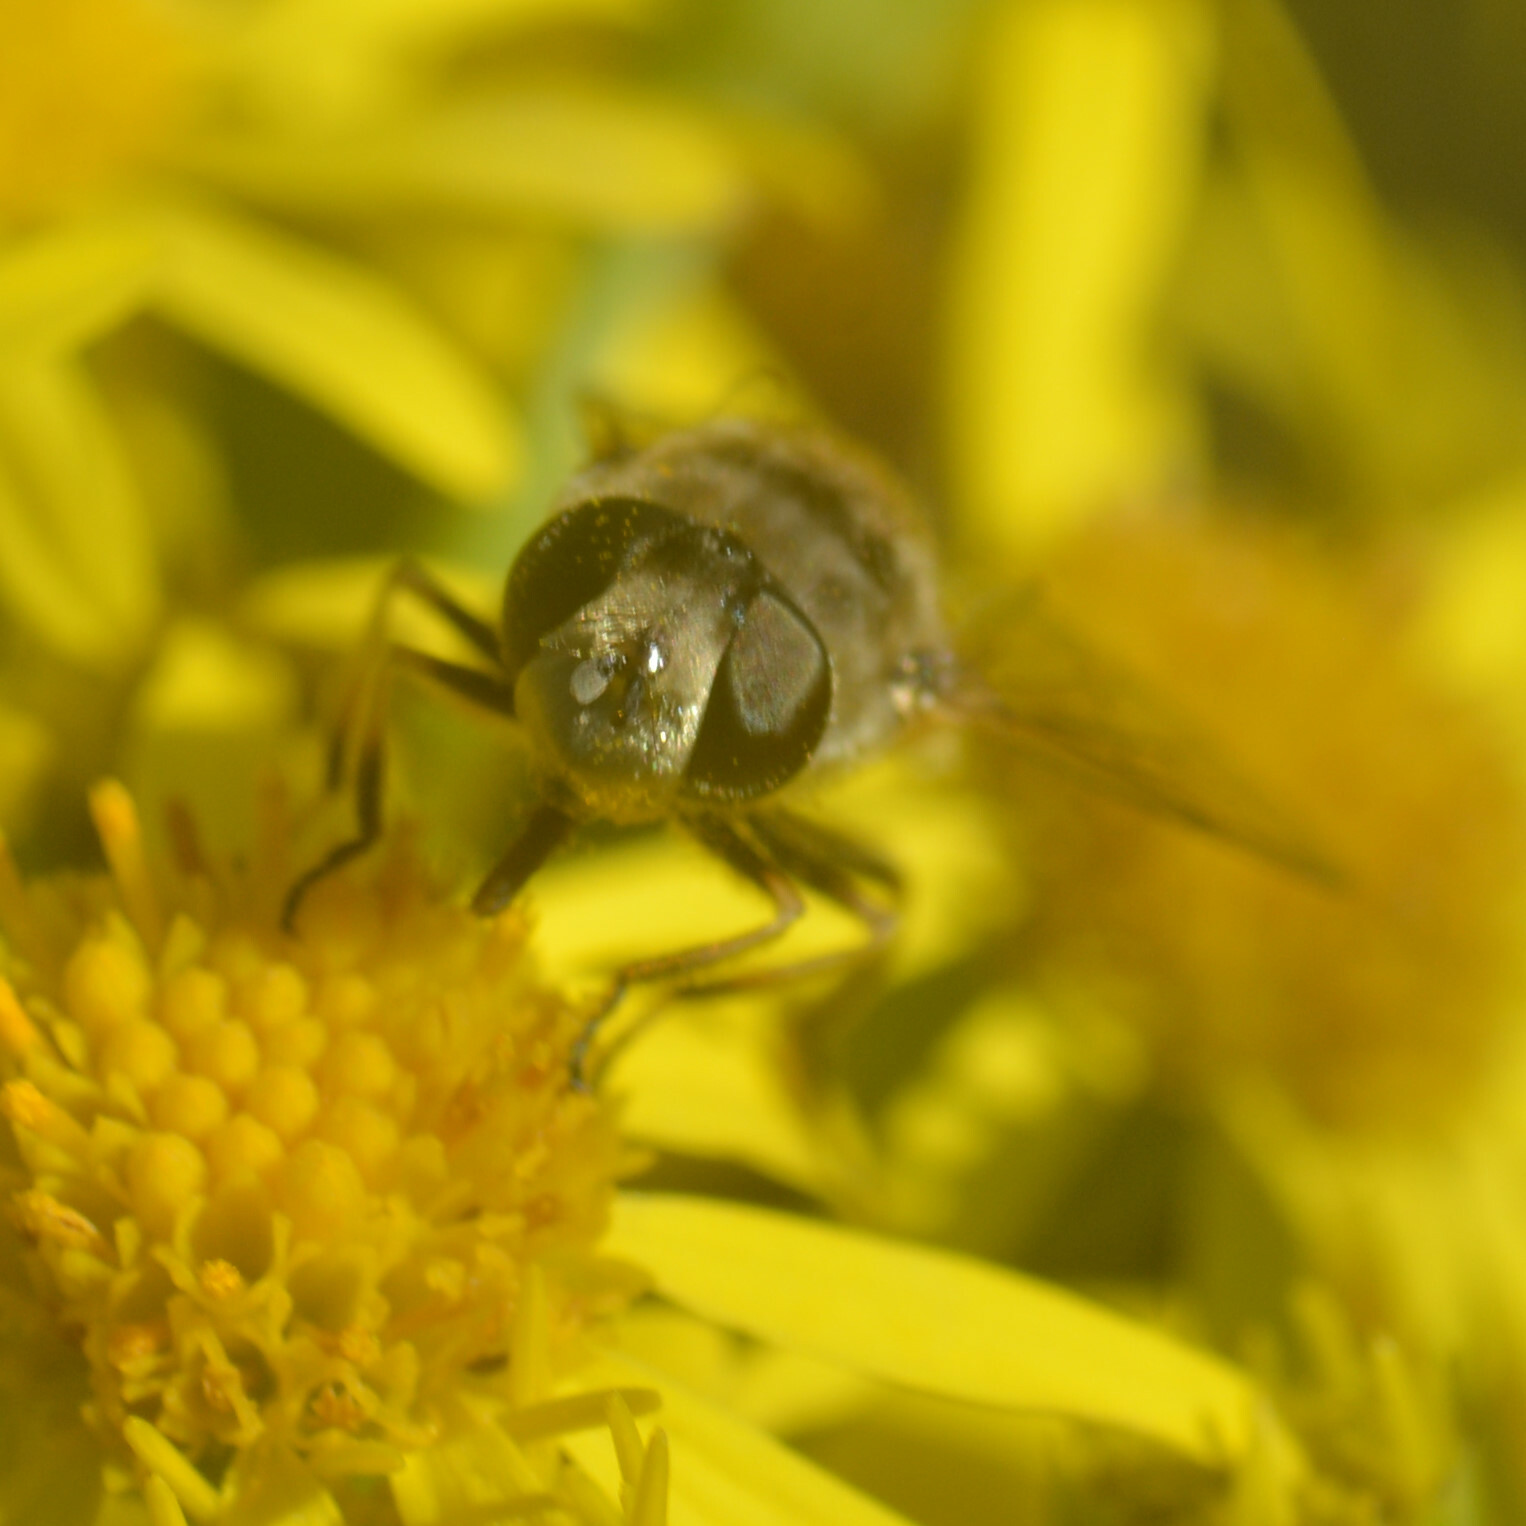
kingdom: Animalia
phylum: Arthropoda
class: Insecta
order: Diptera
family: Syrphidae
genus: Eristalis
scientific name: Eristalis arbustorum
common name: Hover fly
